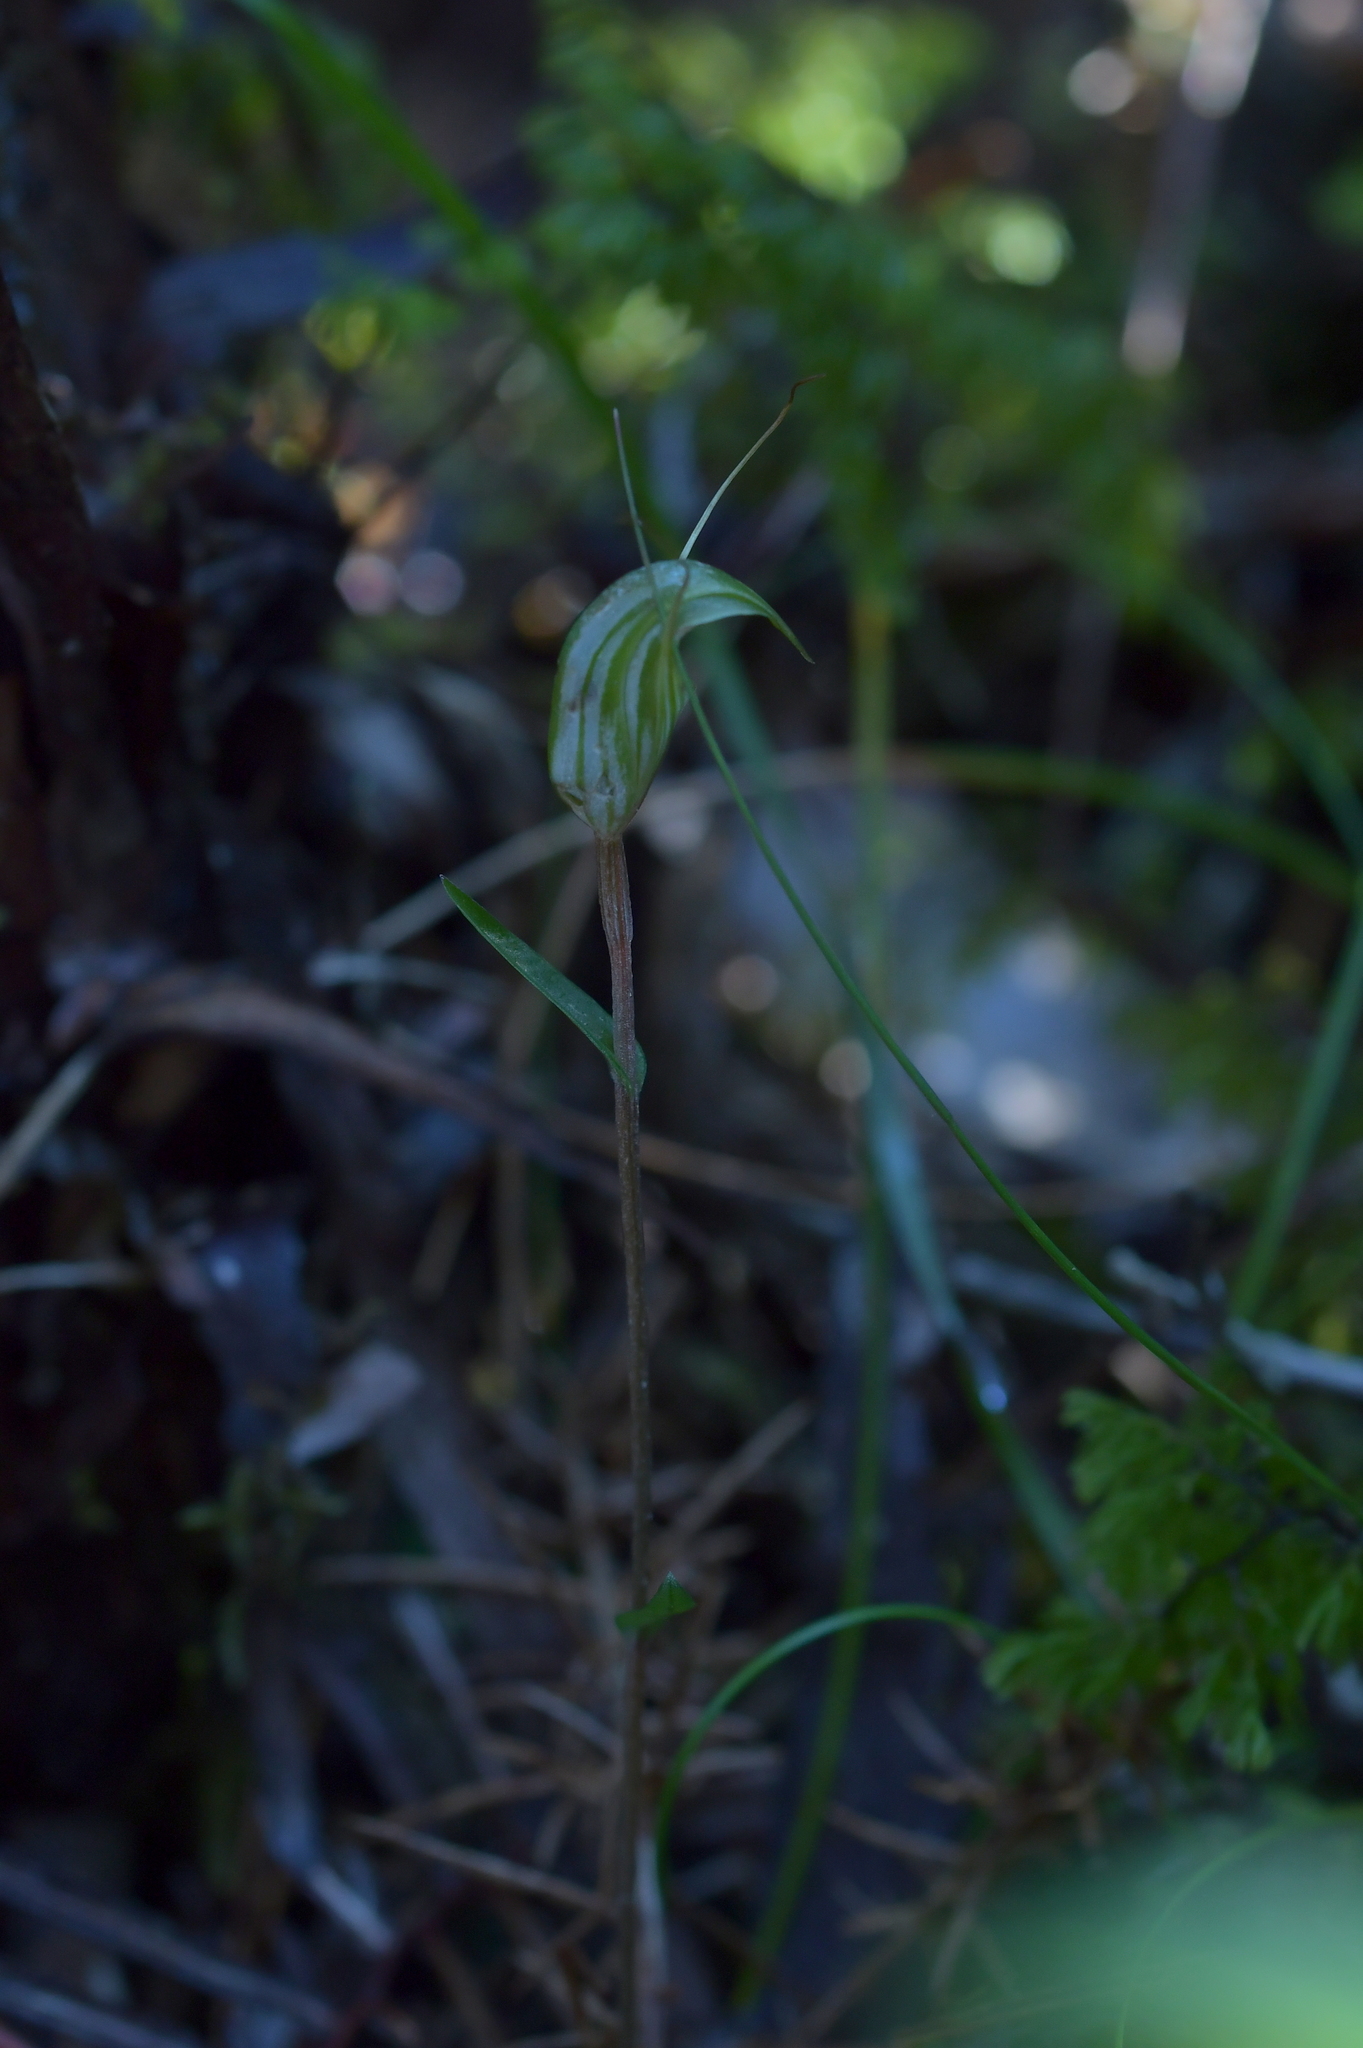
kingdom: Plantae
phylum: Tracheophyta
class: Liliopsida
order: Asparagales
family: Orchidaceae
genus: Pterostylis
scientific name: Pterostylis trullifolia
